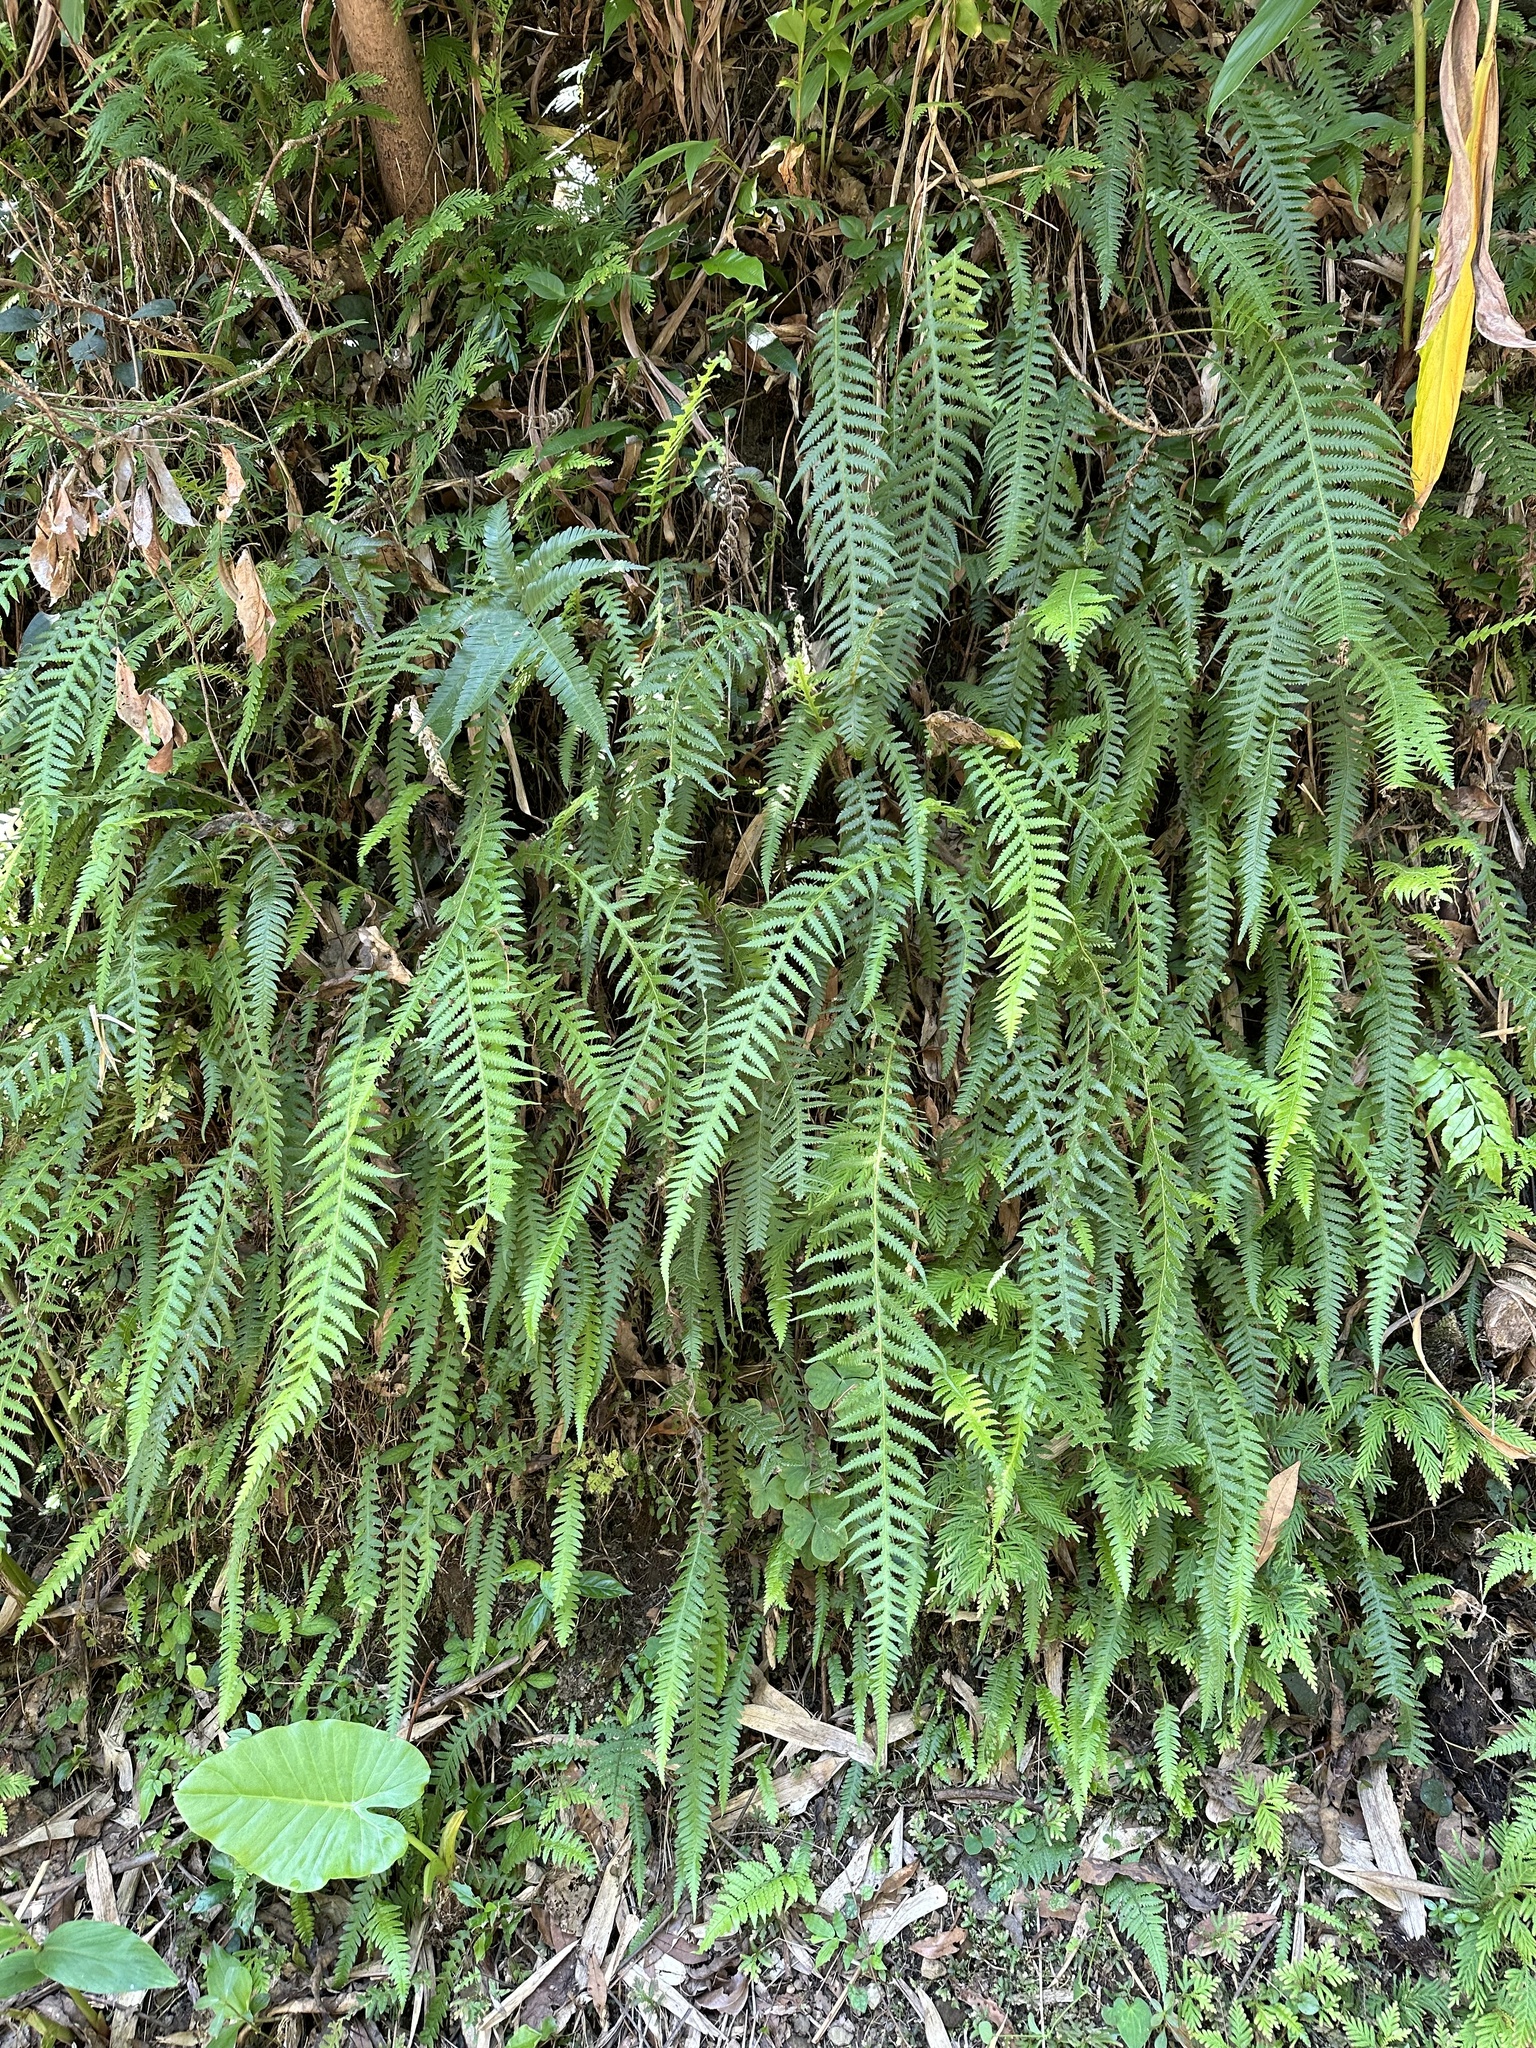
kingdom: Plantae
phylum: Tracheophyta
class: Polypodiopsida
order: Polypodiales
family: Thelypteridaceae
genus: Phegopteris
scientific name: Phegopteris decursive-pinnata
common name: Japanese beech fern
